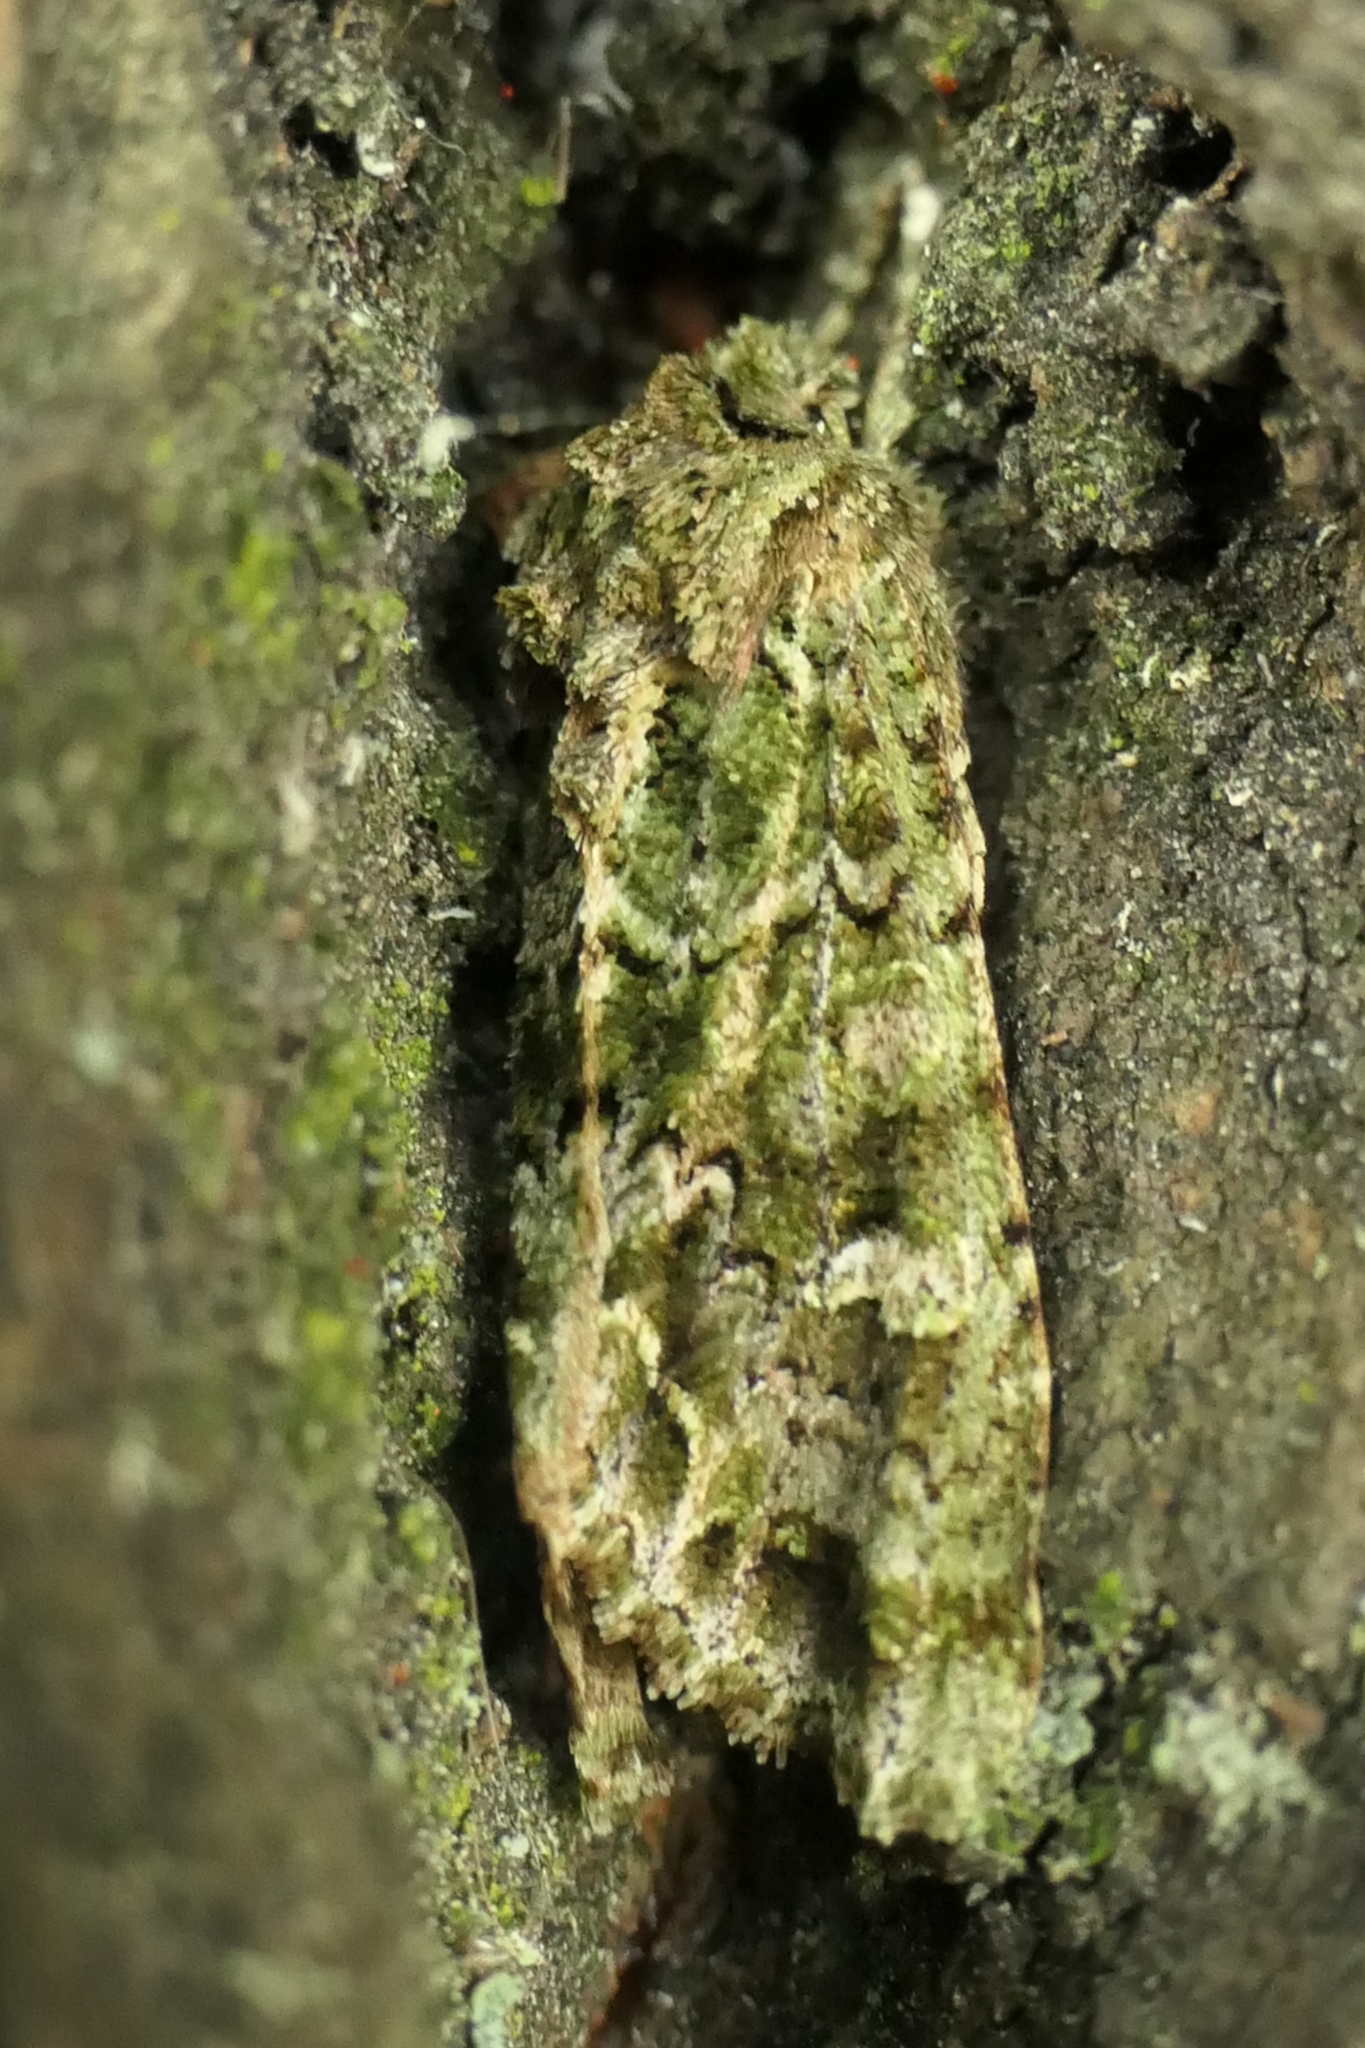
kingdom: Animalia
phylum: Arthropoda
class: Insecta
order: Lepidoptera
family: Noctuidae
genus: Ichneutica
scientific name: Ichneutica
